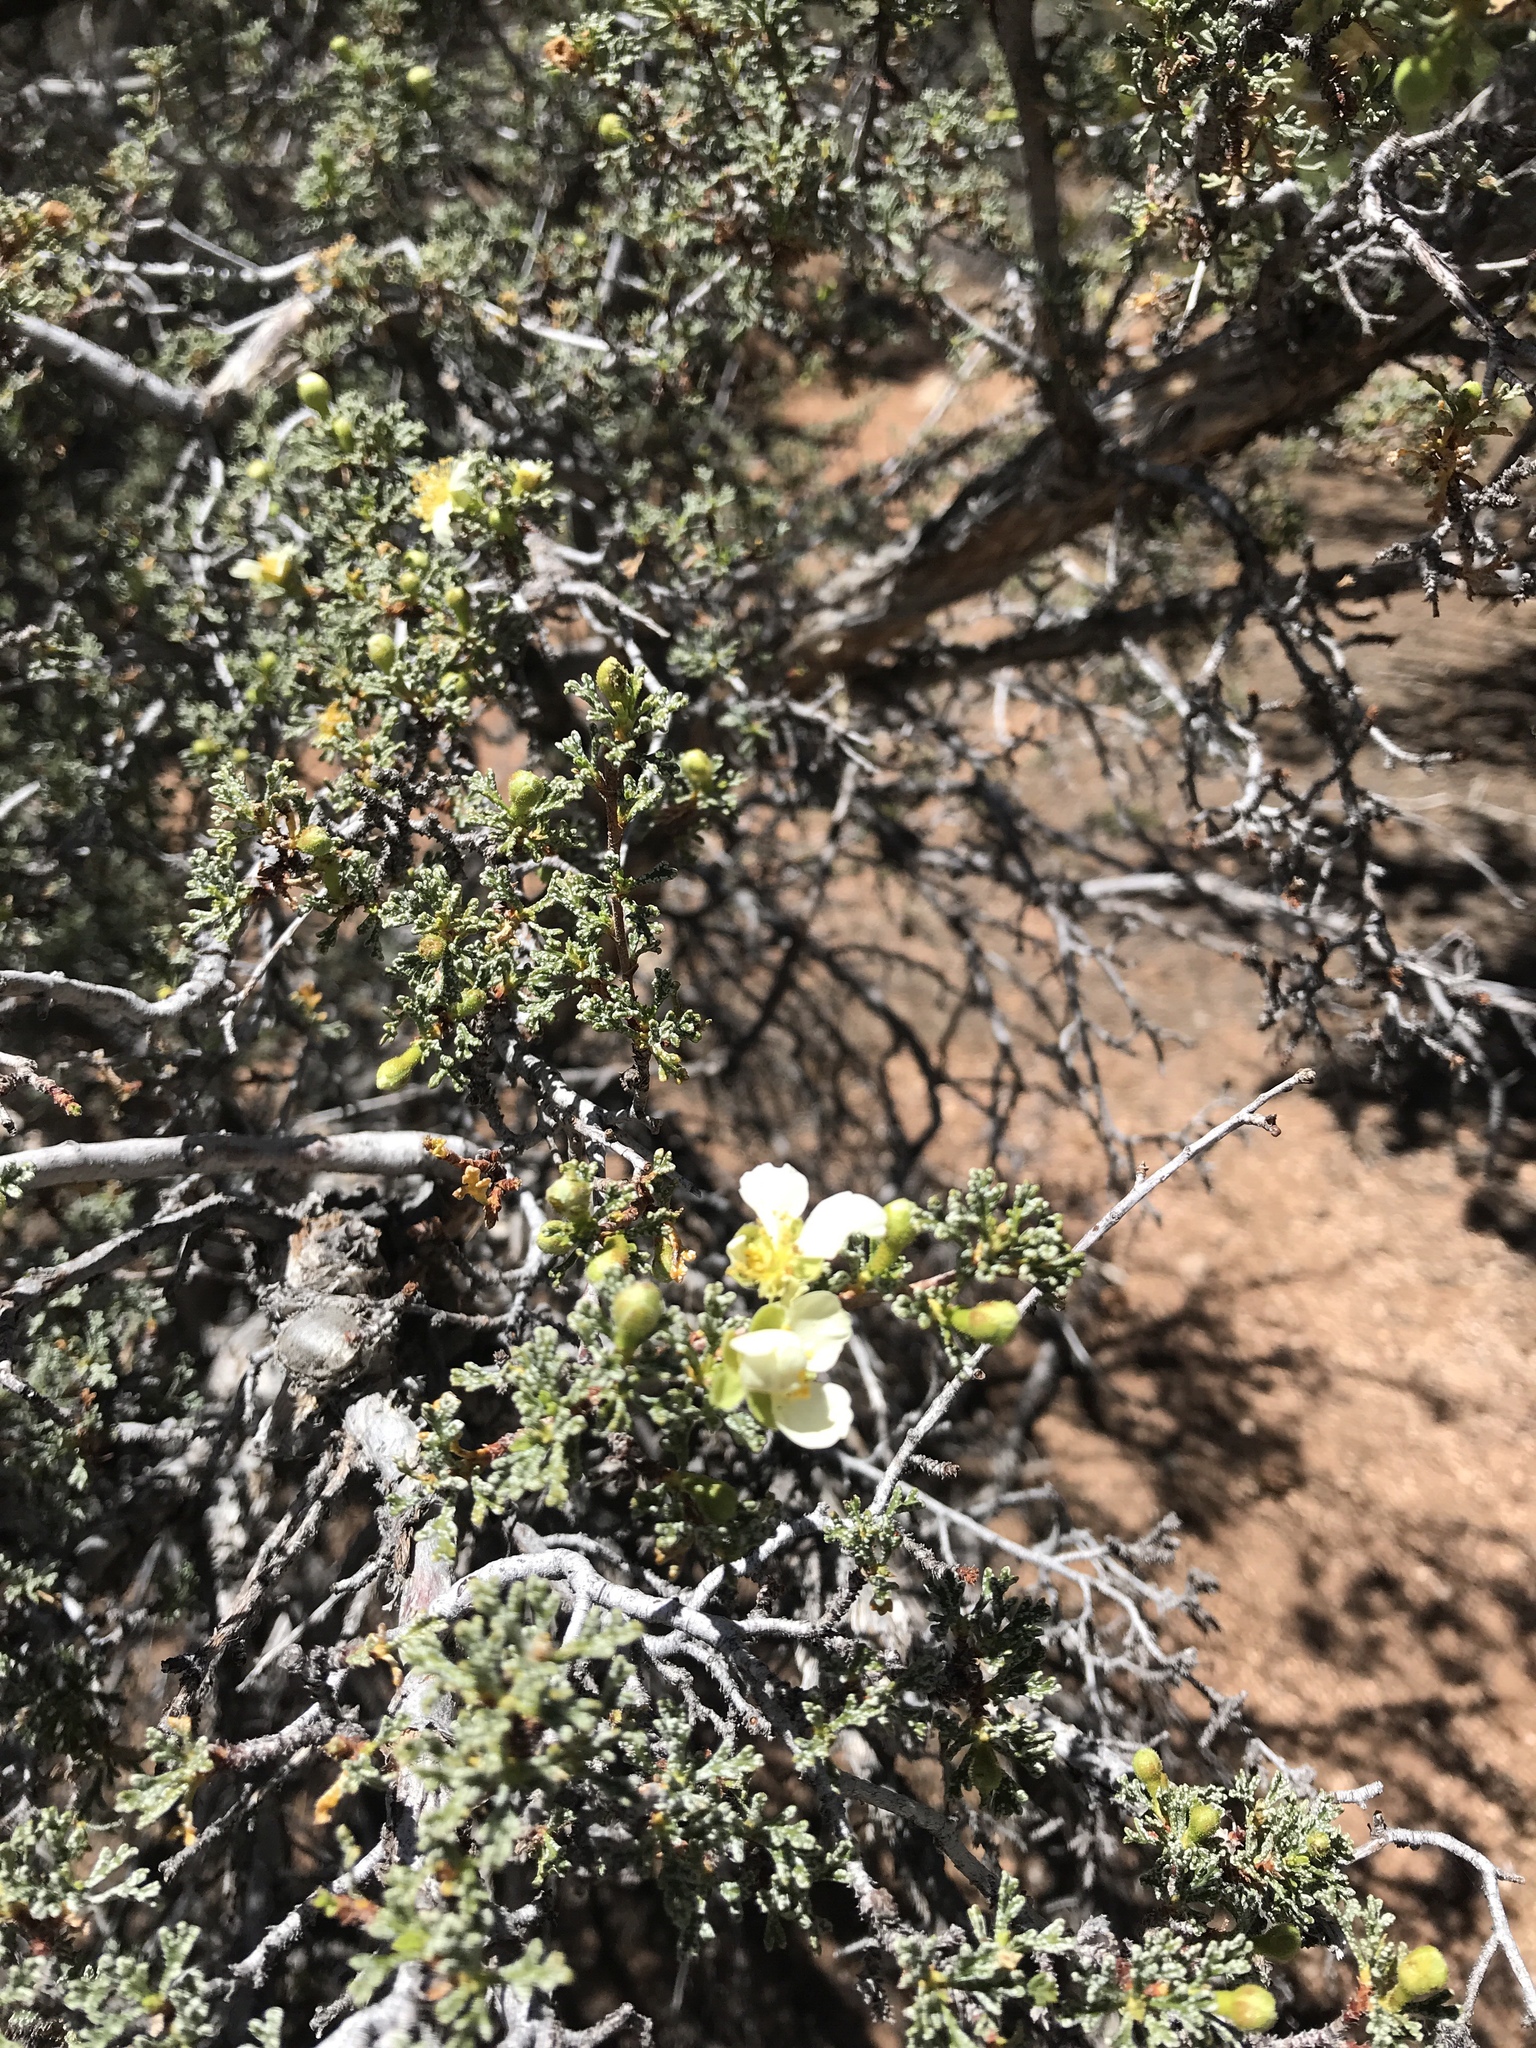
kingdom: Plantae
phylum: Tracheophyta
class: Magnoliopsida
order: Rosales
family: Rosaceae
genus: Purshia
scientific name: Purshia stansburiana
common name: Stansbury's cliffrose
